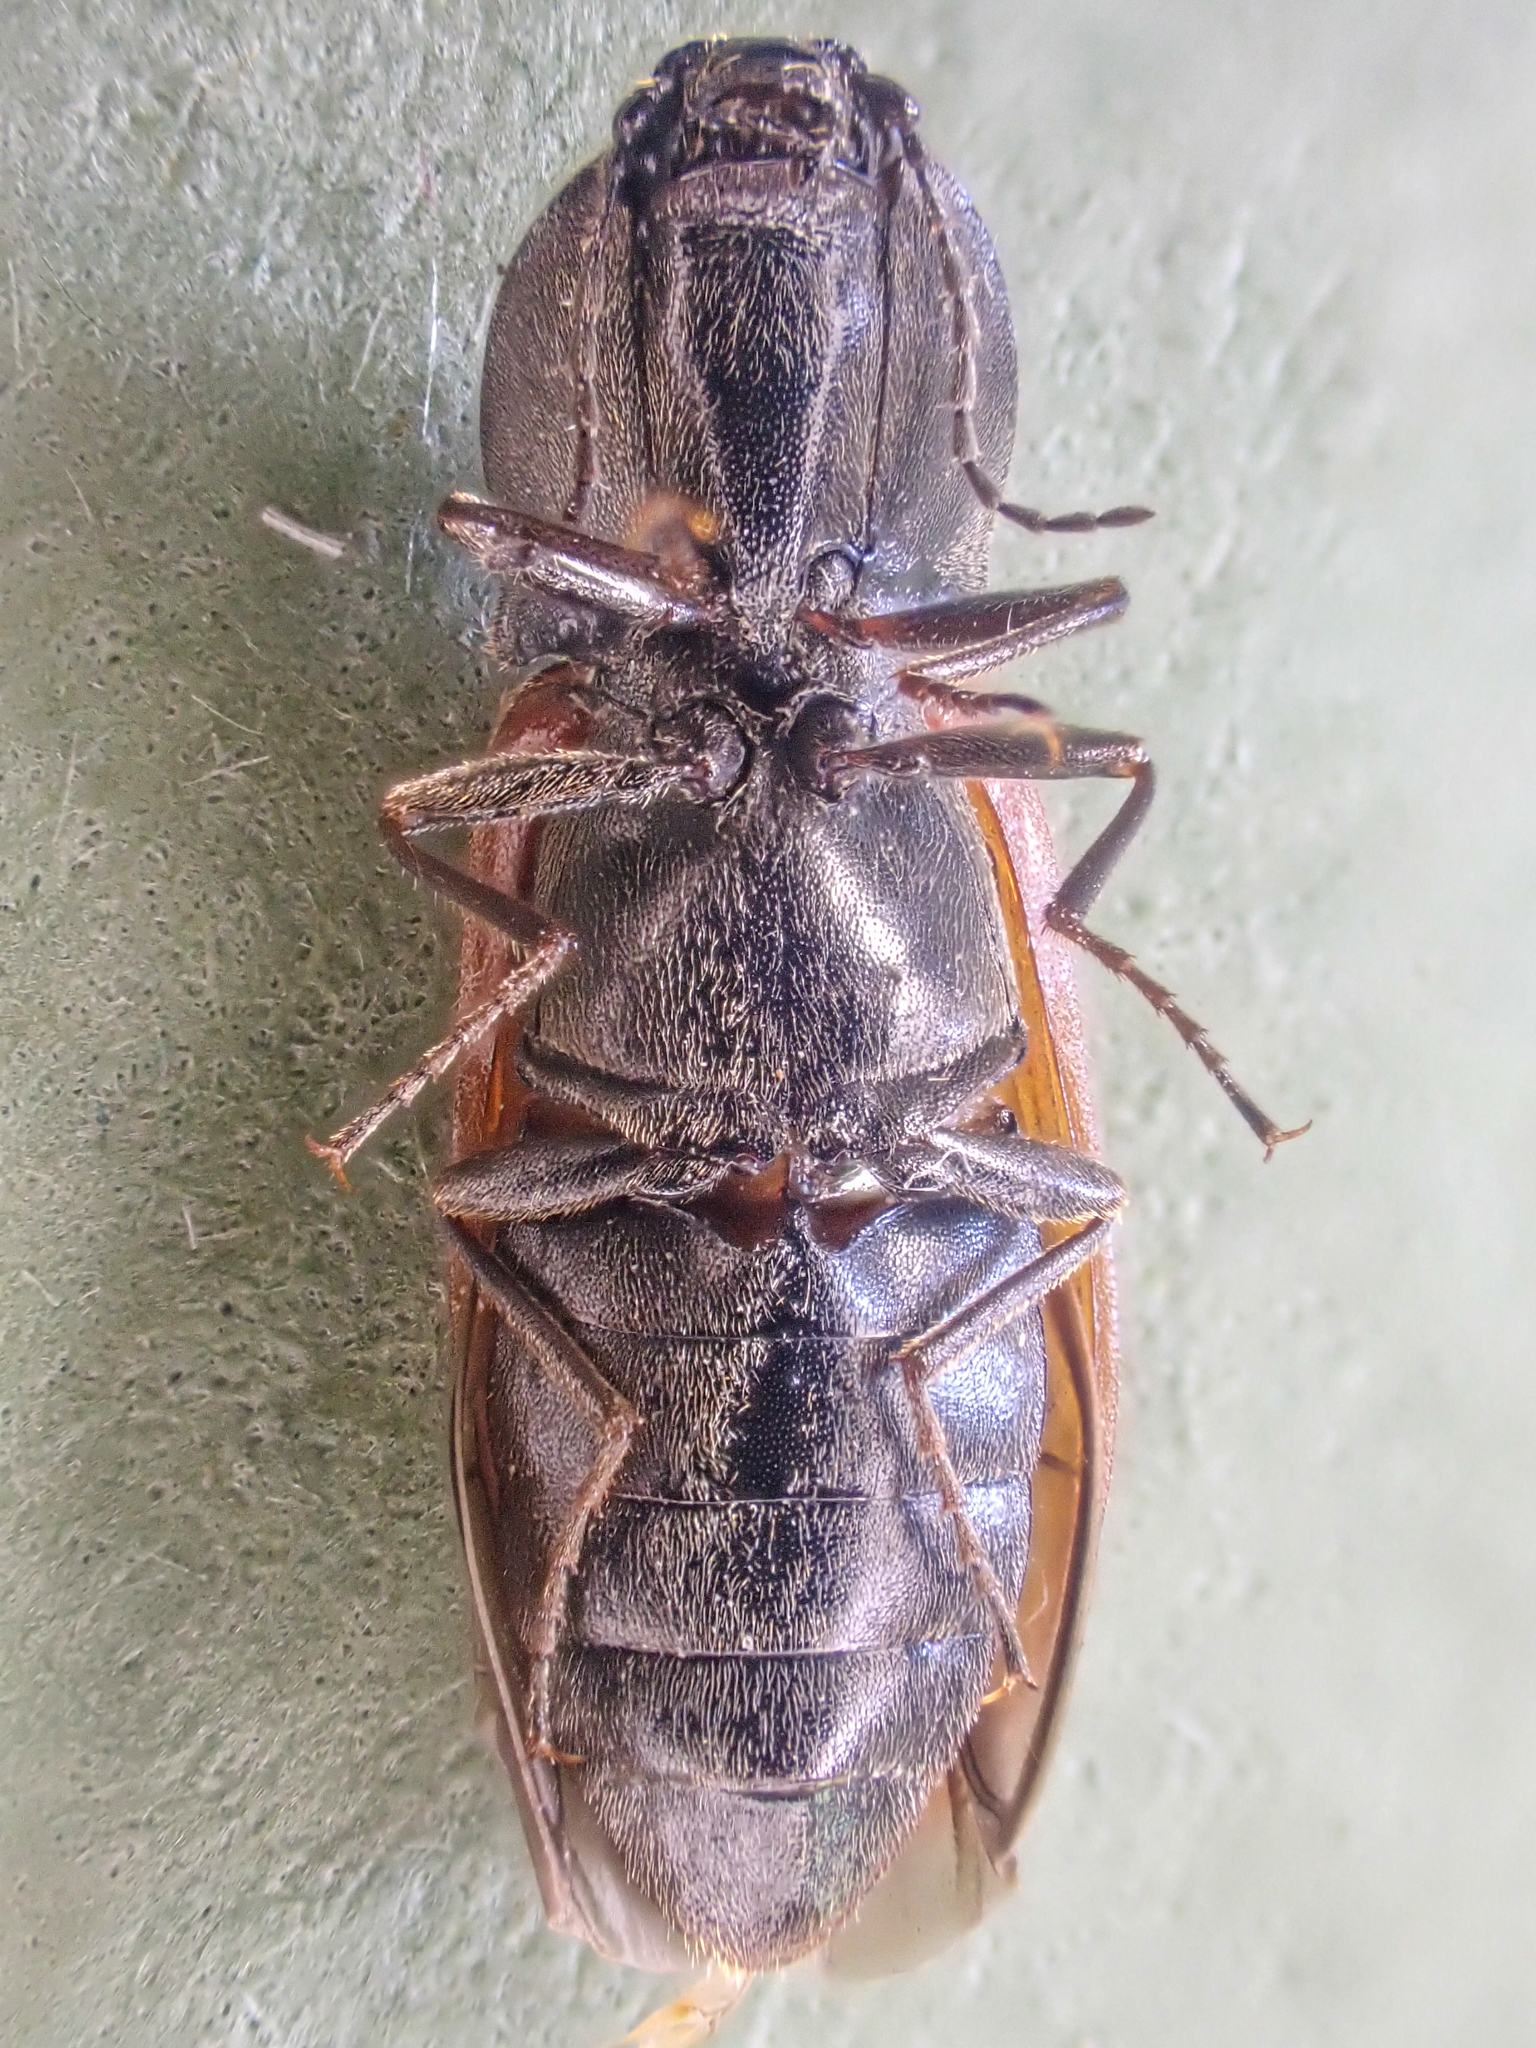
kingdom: Animalia
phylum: Arthropoda
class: Insecta
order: Coleoptera
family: Elateridae
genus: Pseudanostirus
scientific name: Pseudanostirus hoppingi
